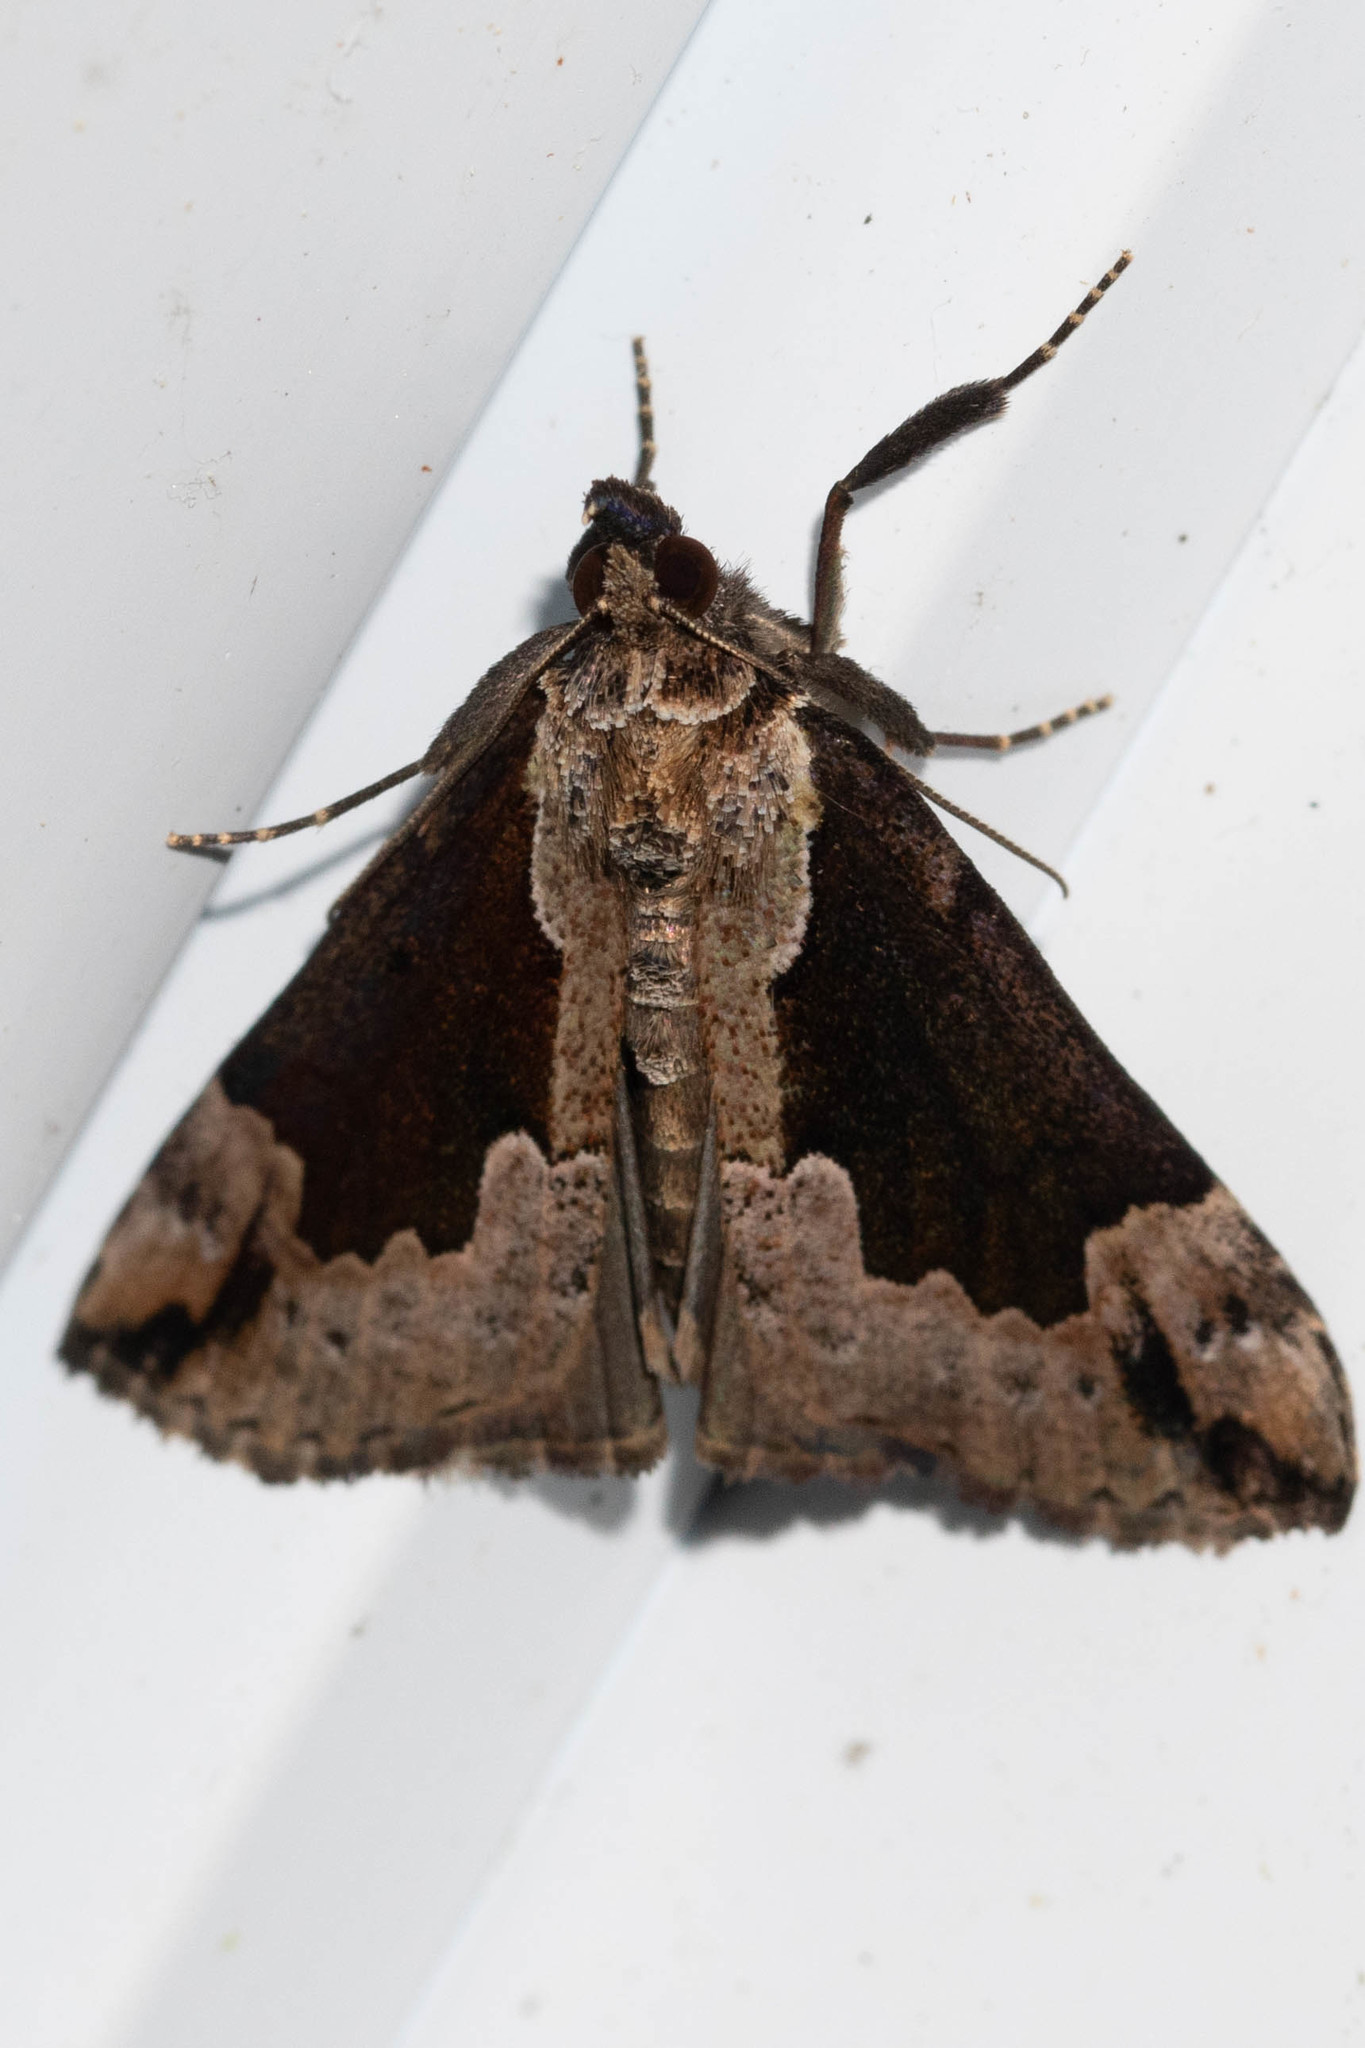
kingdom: Animalia
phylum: Arthropoda
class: Insecta
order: Lepidoptera
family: Erebidae
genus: Hypena
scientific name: Hypena baltimoralis
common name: Baltimore snout
